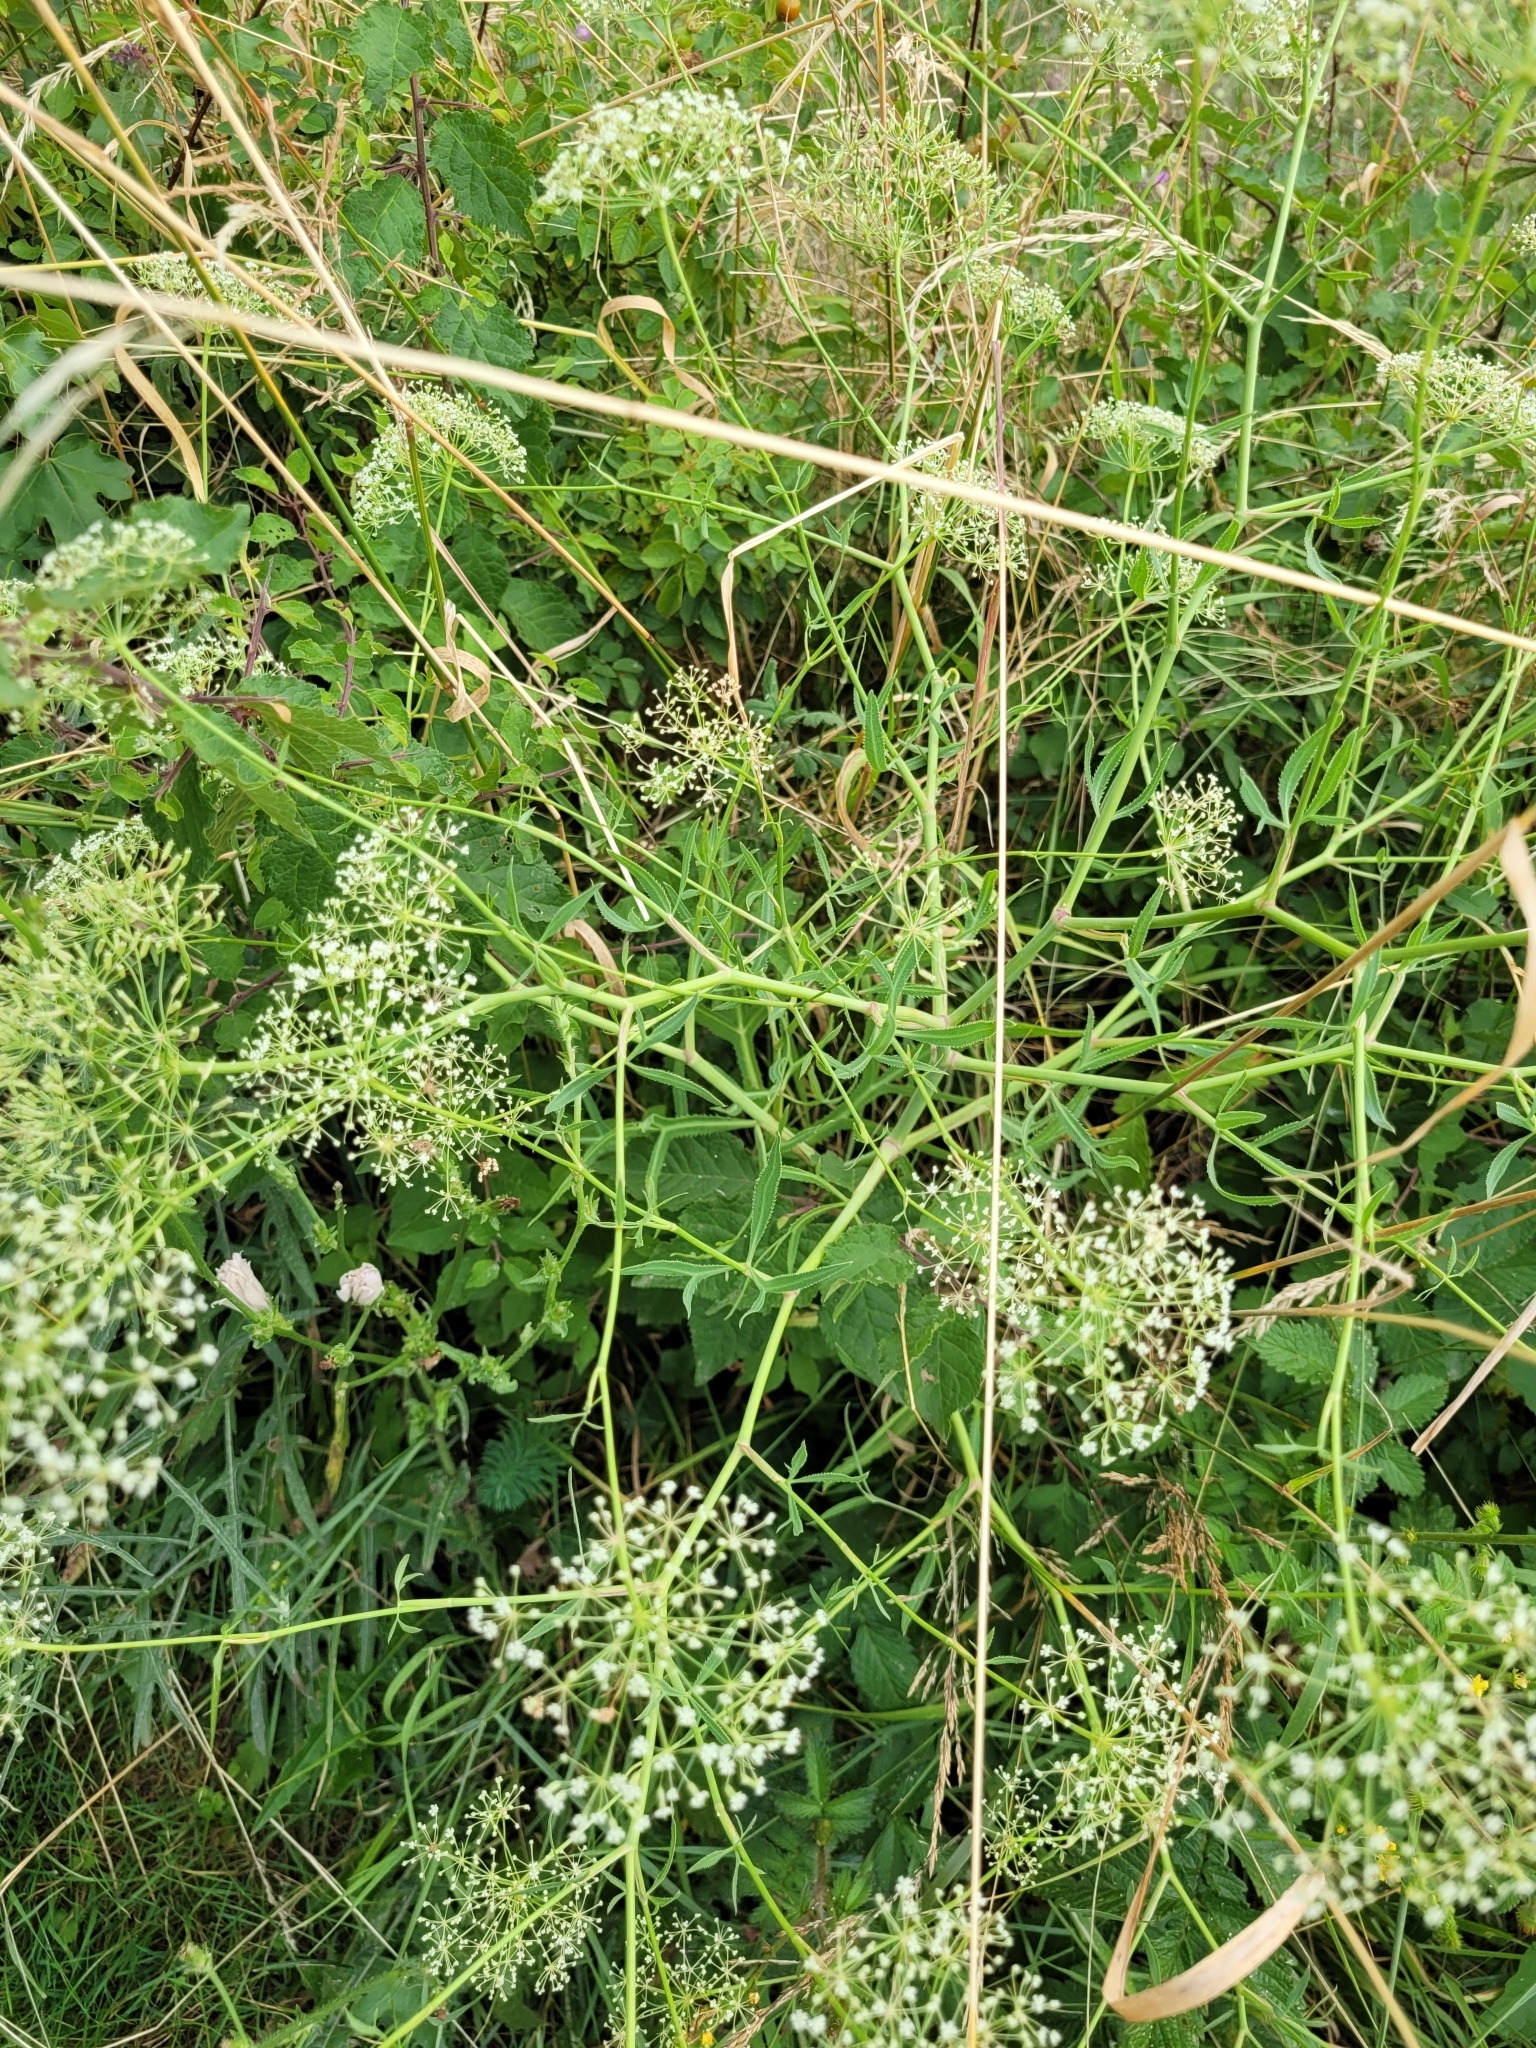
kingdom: Plantae
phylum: Tracheophyta
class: Magnoliopsida
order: Apiales
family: Apiaceae
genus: Falcaria
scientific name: Falcaria vulgaris
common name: Longleaf
